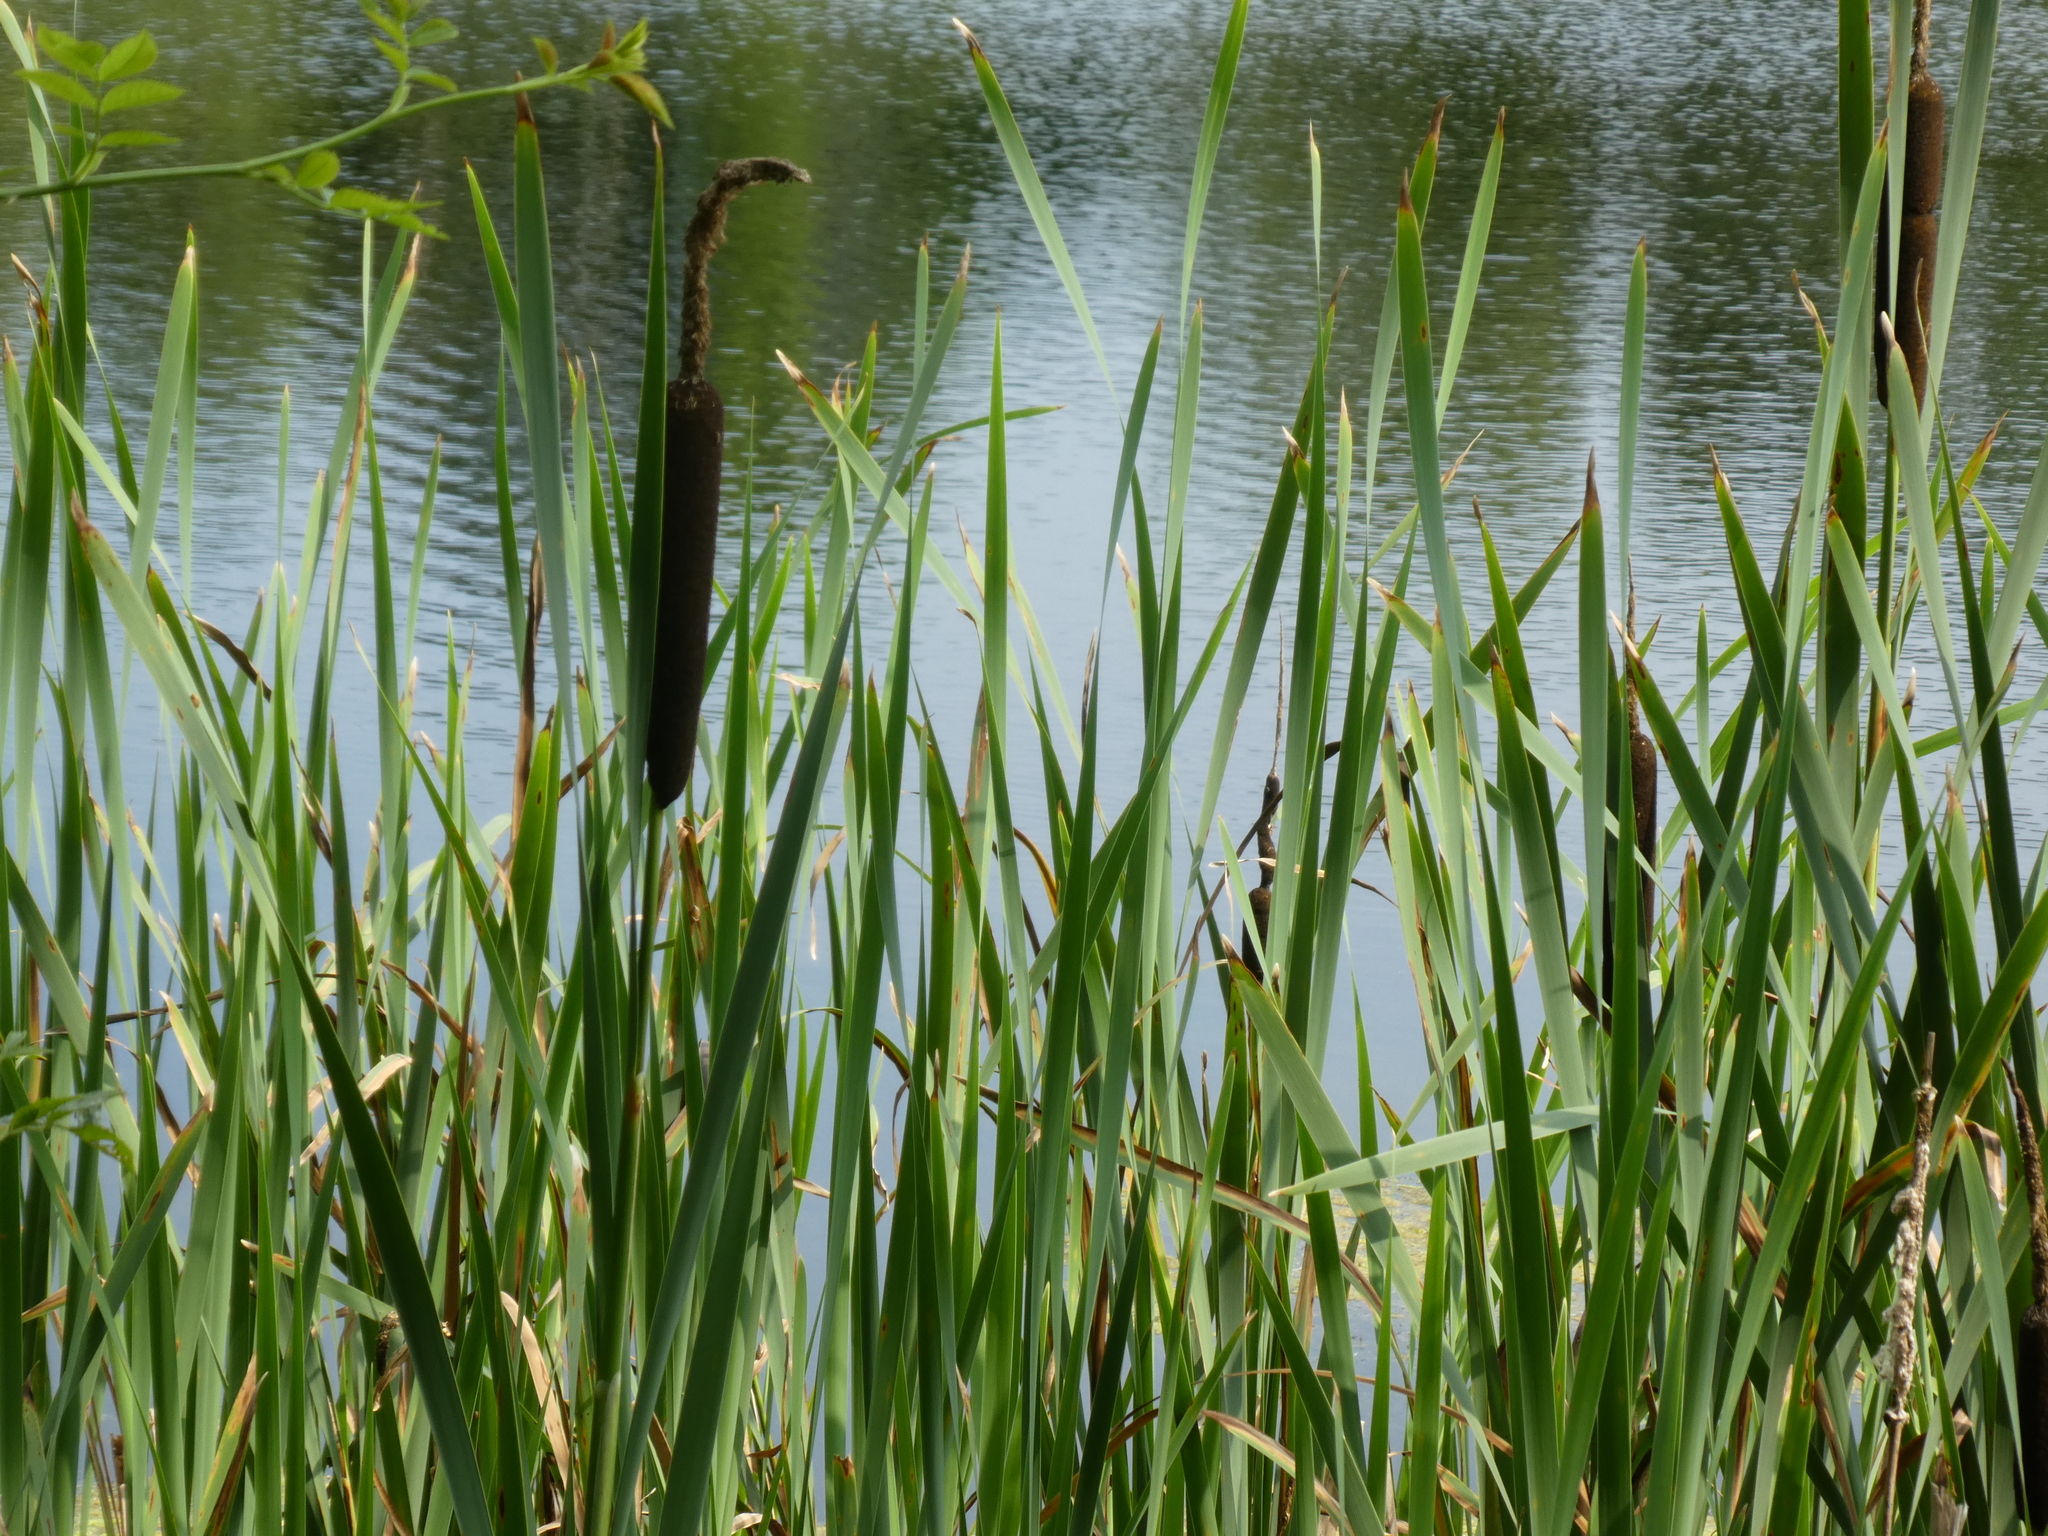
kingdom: Plantae
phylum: Tracheophyta
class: Liliopsida
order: Poales
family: Typhaceae
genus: Typha
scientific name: Typha latifolia
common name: Broadleaf cattail
